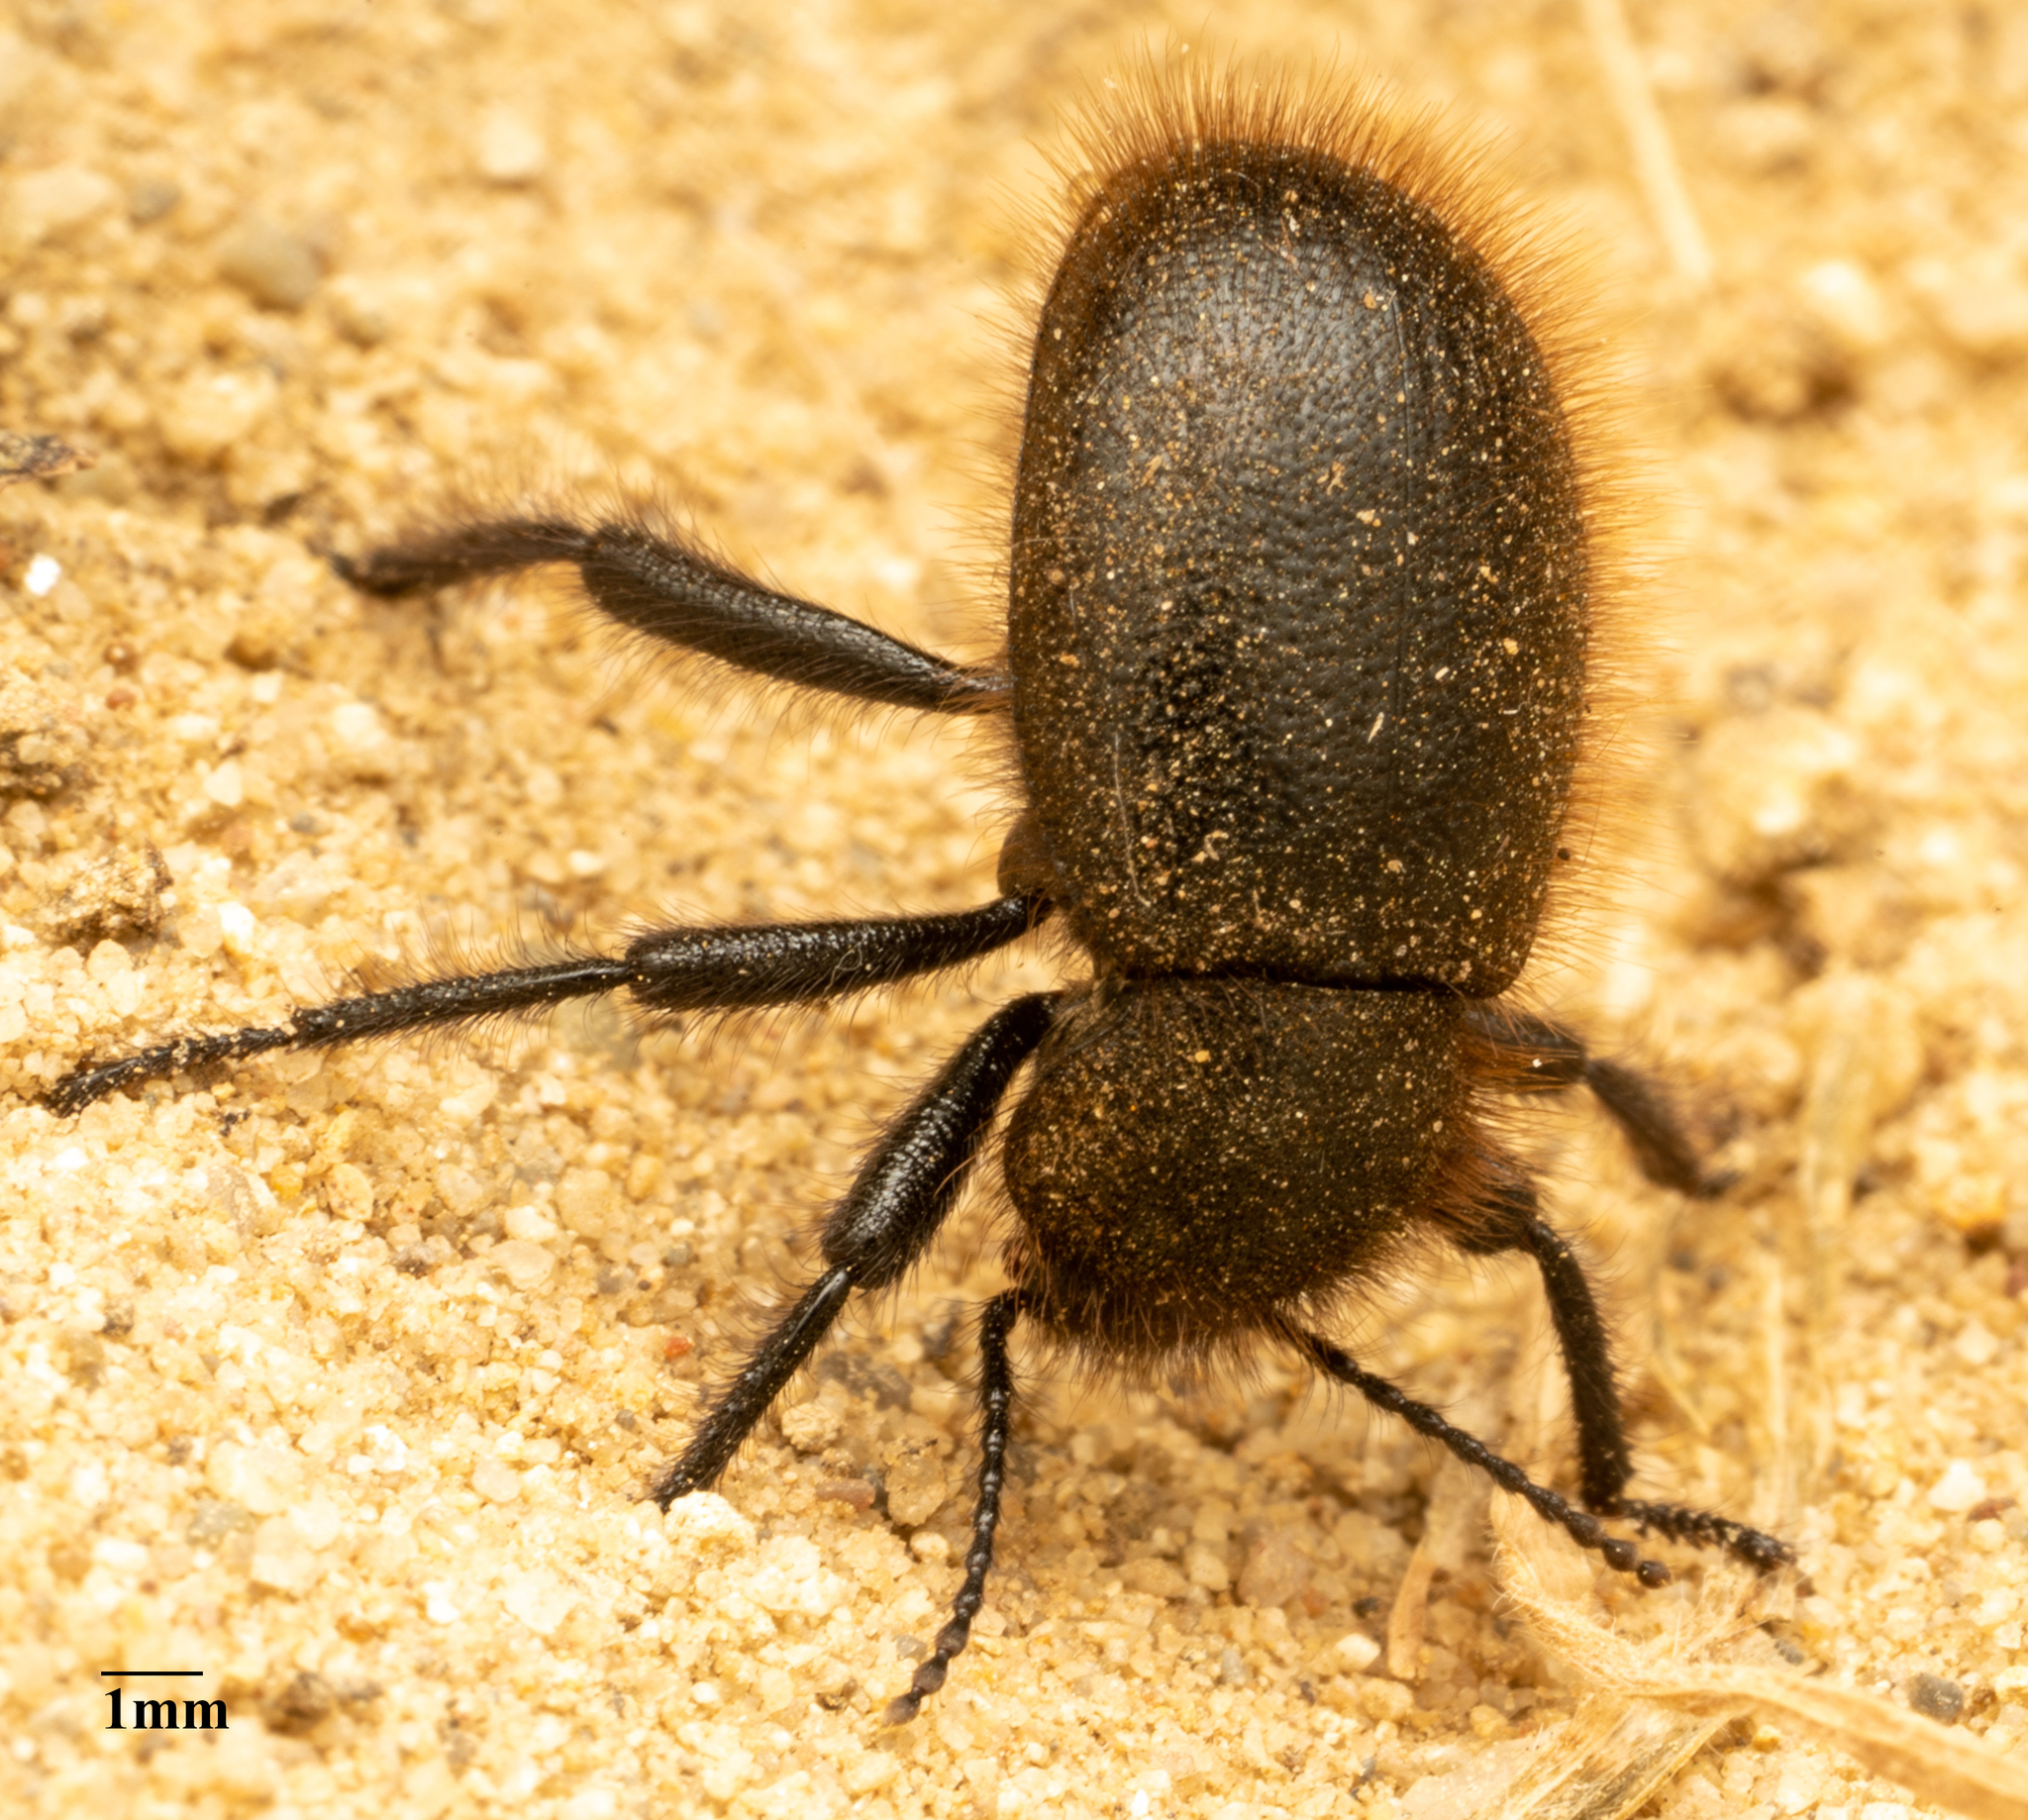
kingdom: Animalia
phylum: Arthropoda
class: Insecta
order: Coleoptera
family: Tenebrionidae
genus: Eleodes
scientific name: Eleodes osculans
